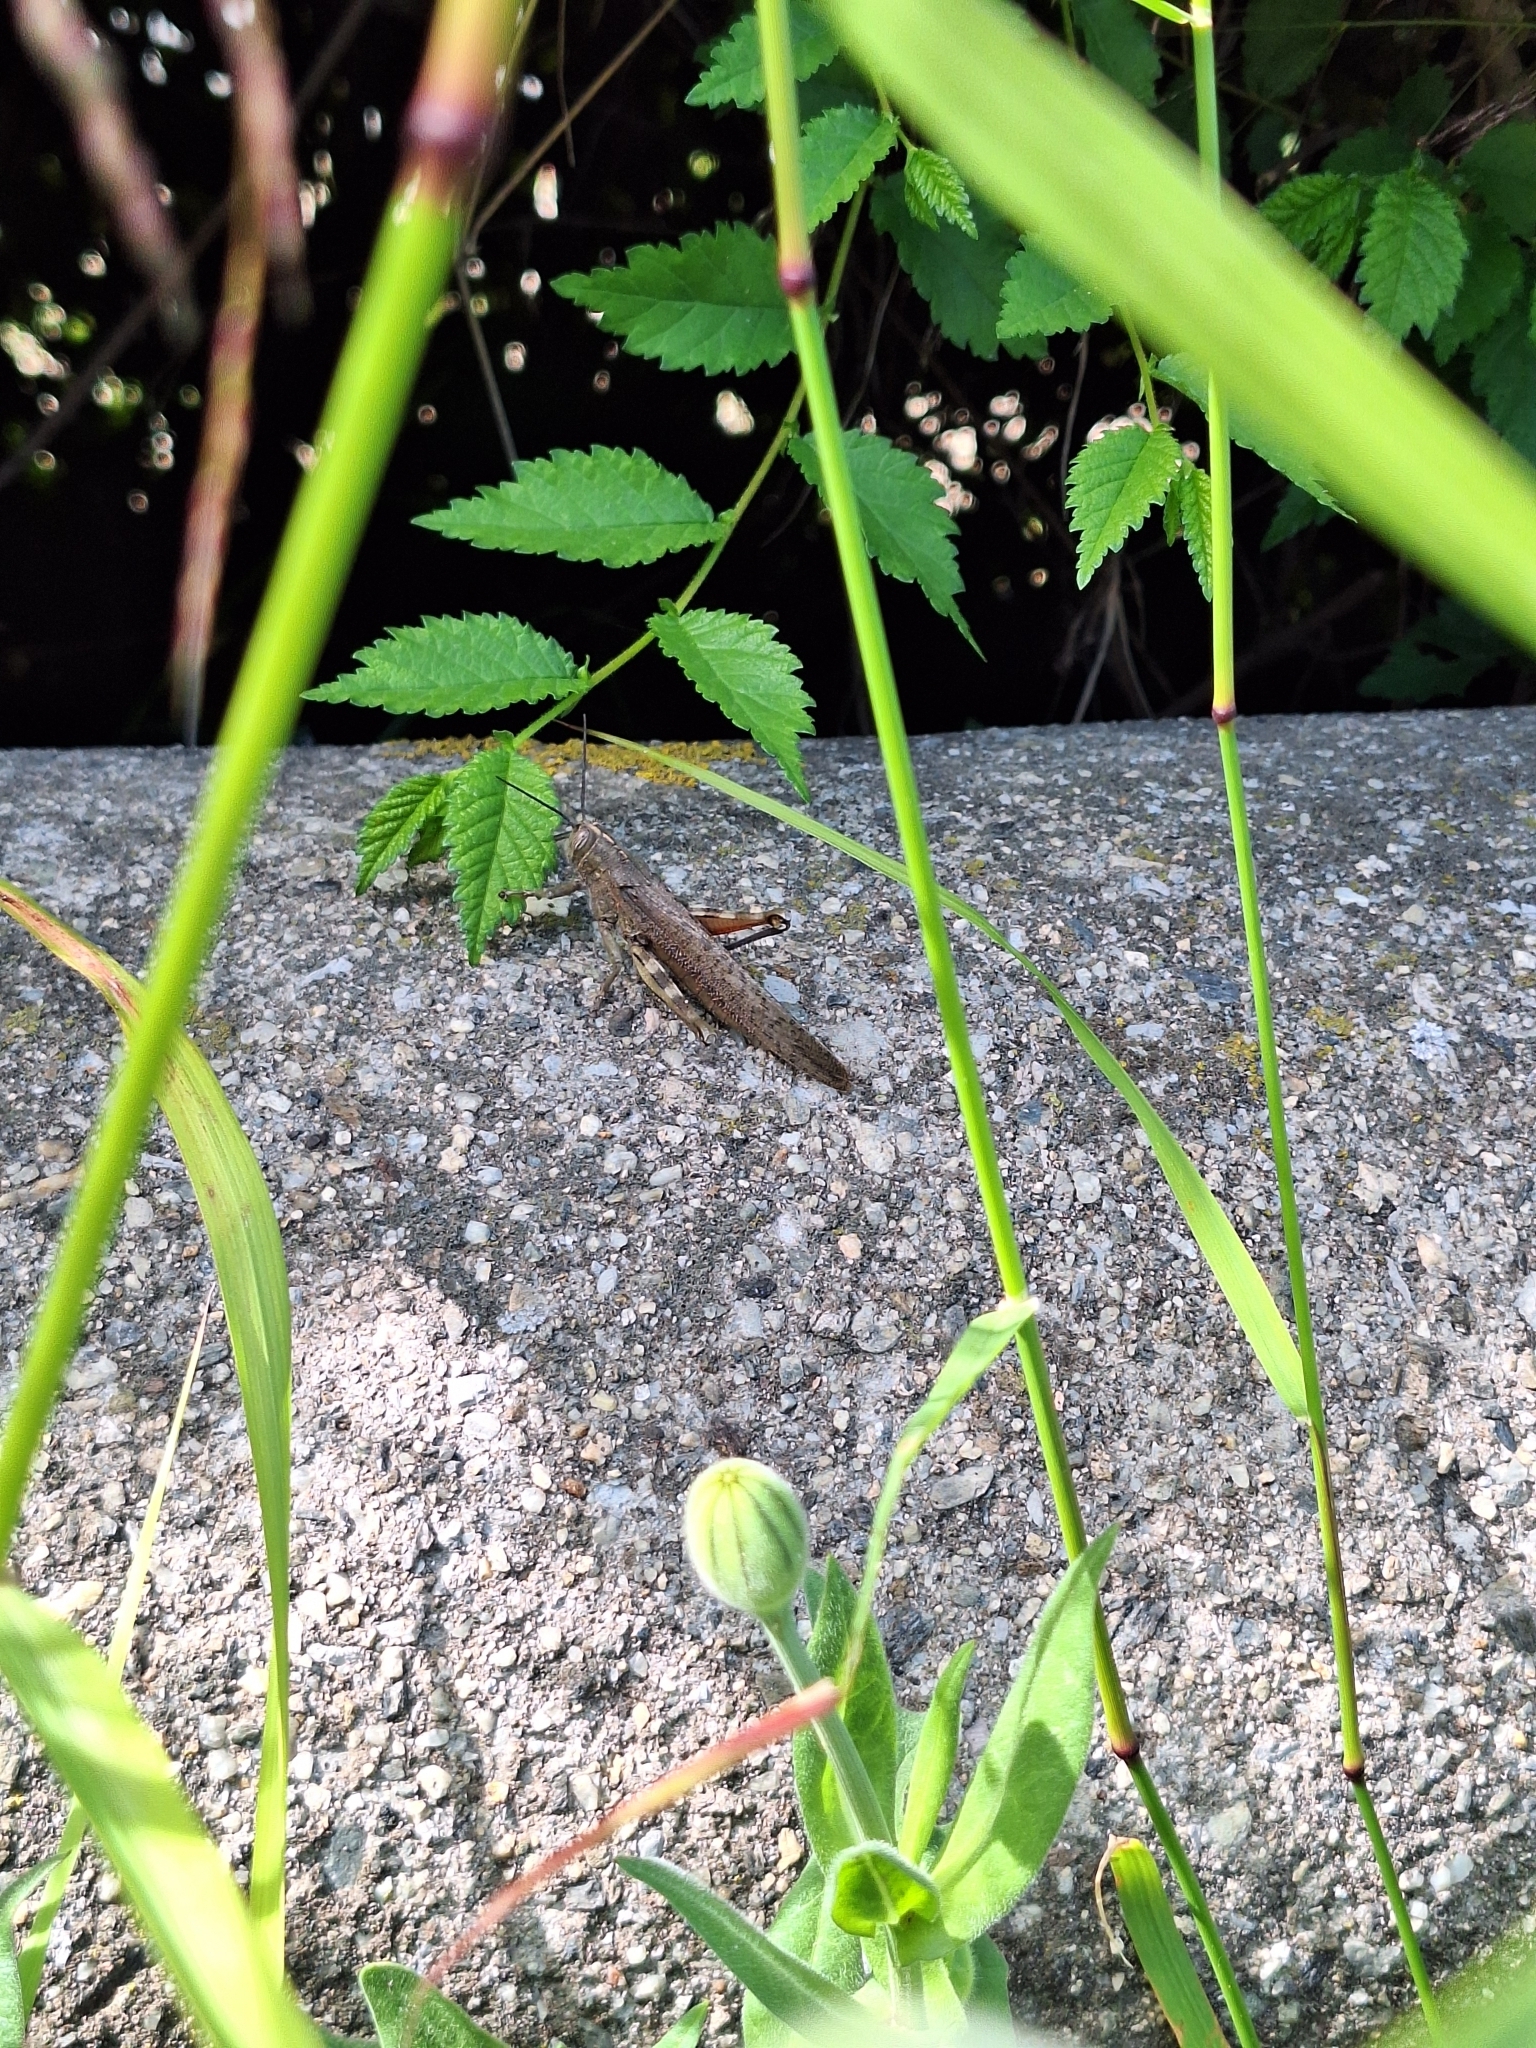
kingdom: Animalia
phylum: Arthropoda
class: Insecta
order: Orthoptera
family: Acrididae
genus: Anacridium
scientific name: Anacridium aegyptium
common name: Egyptian grasshopper
